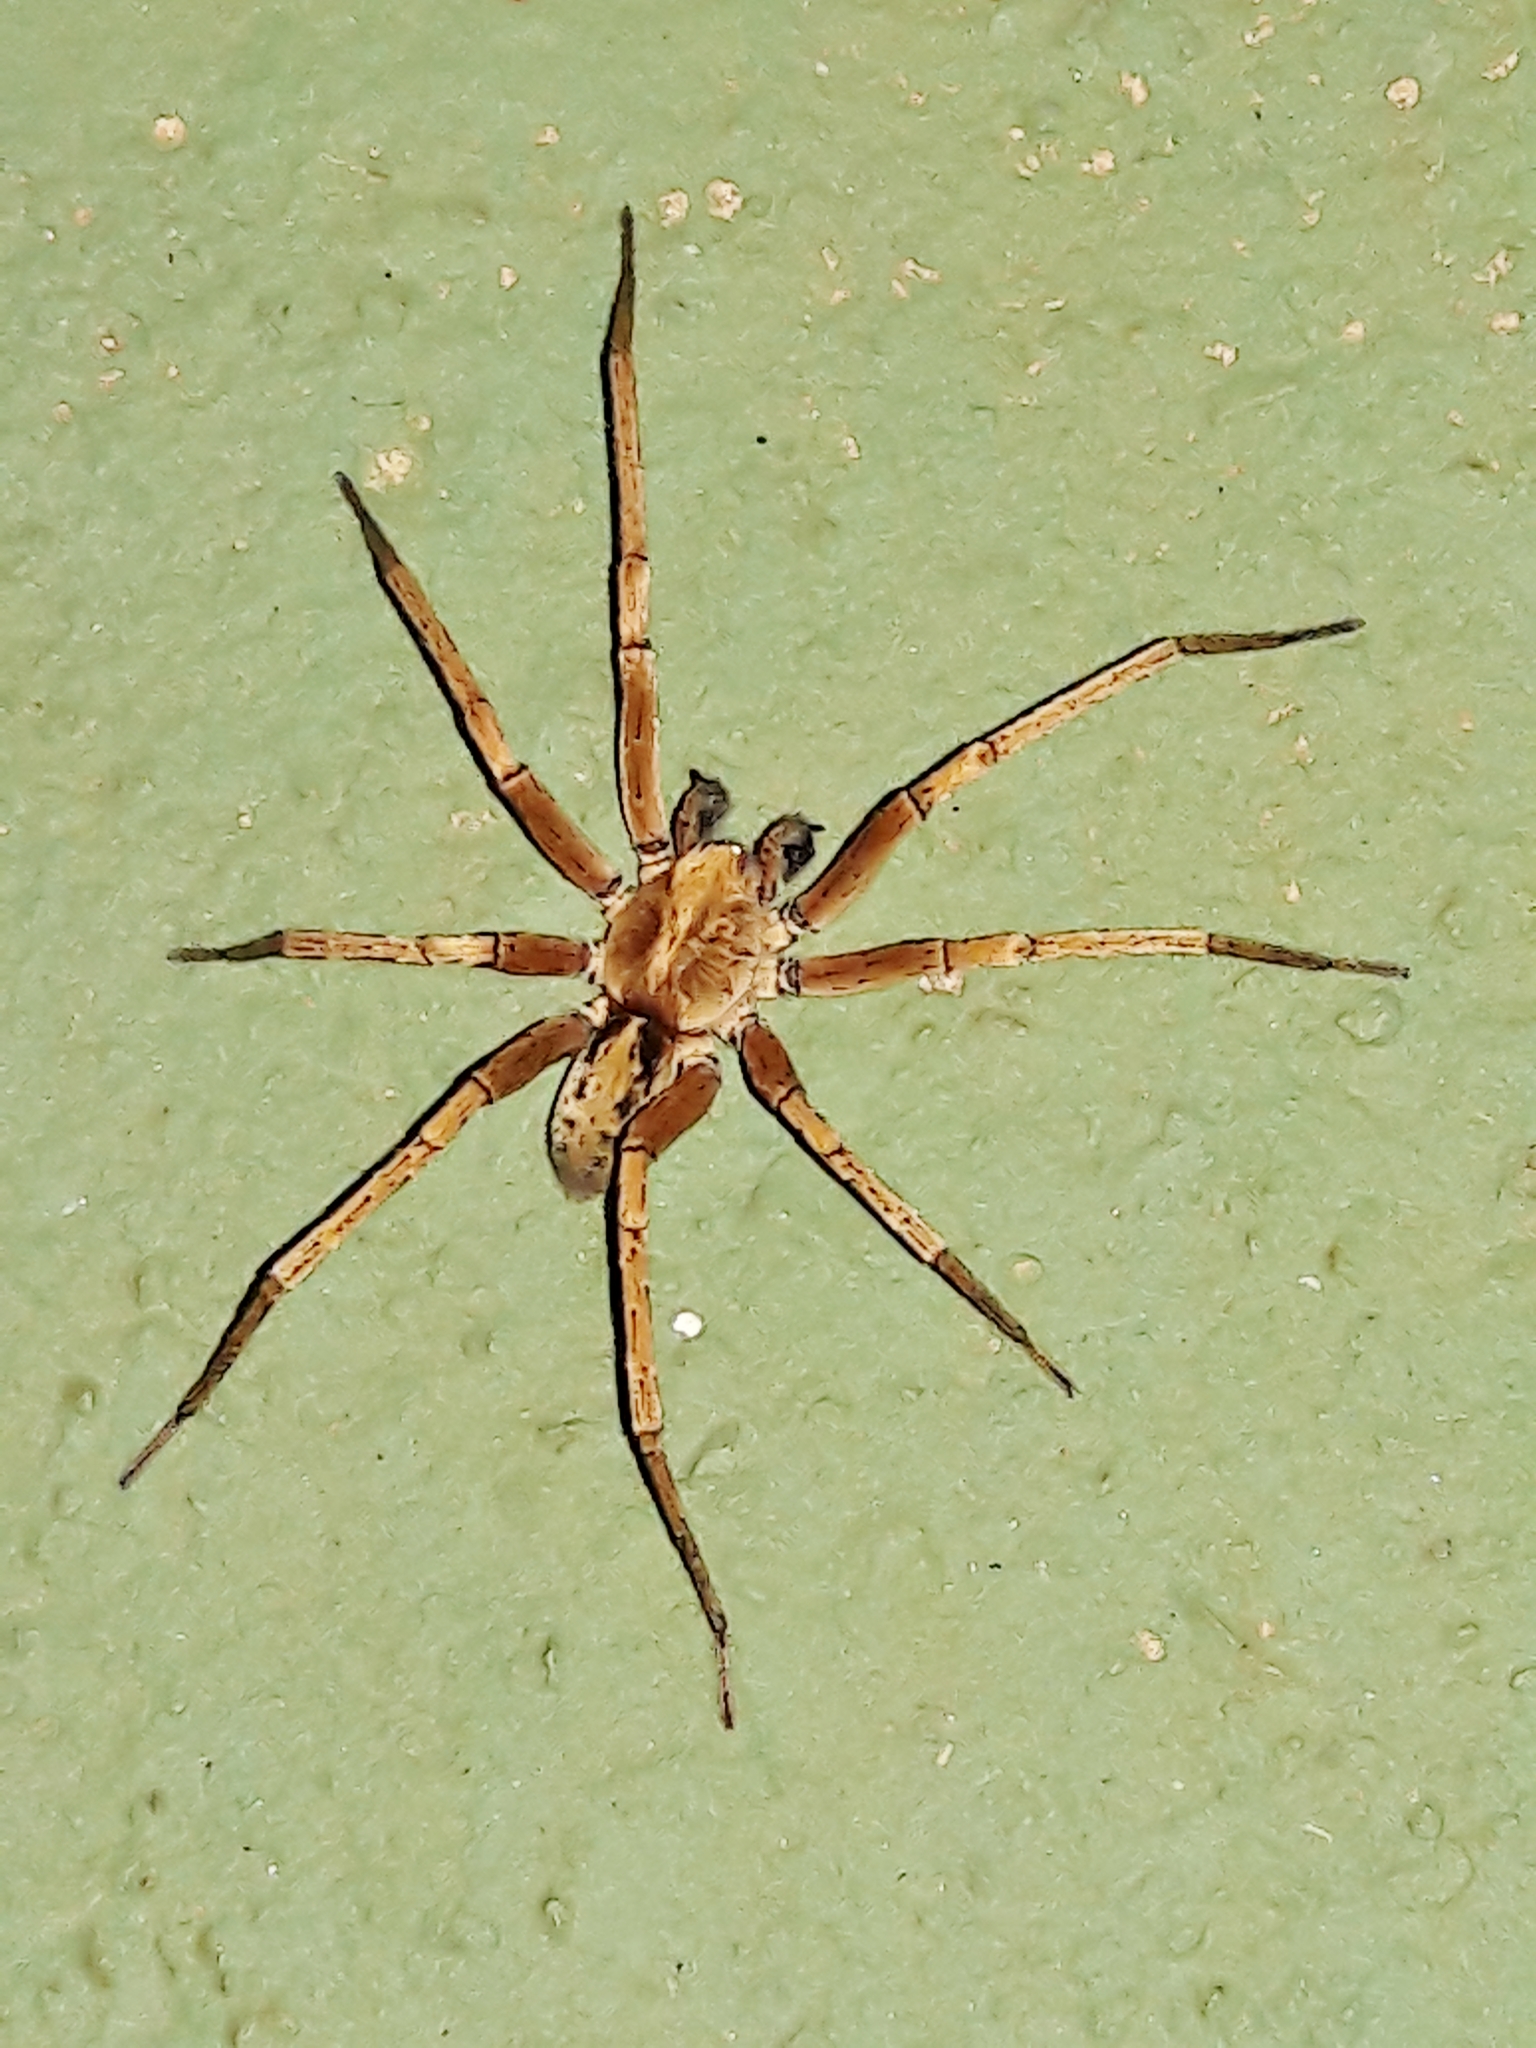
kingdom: Animalia
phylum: Arthropoda
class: Arachnida
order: Araneae
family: Ctenidae
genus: Isoctenus
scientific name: Isoctenus coxalis
